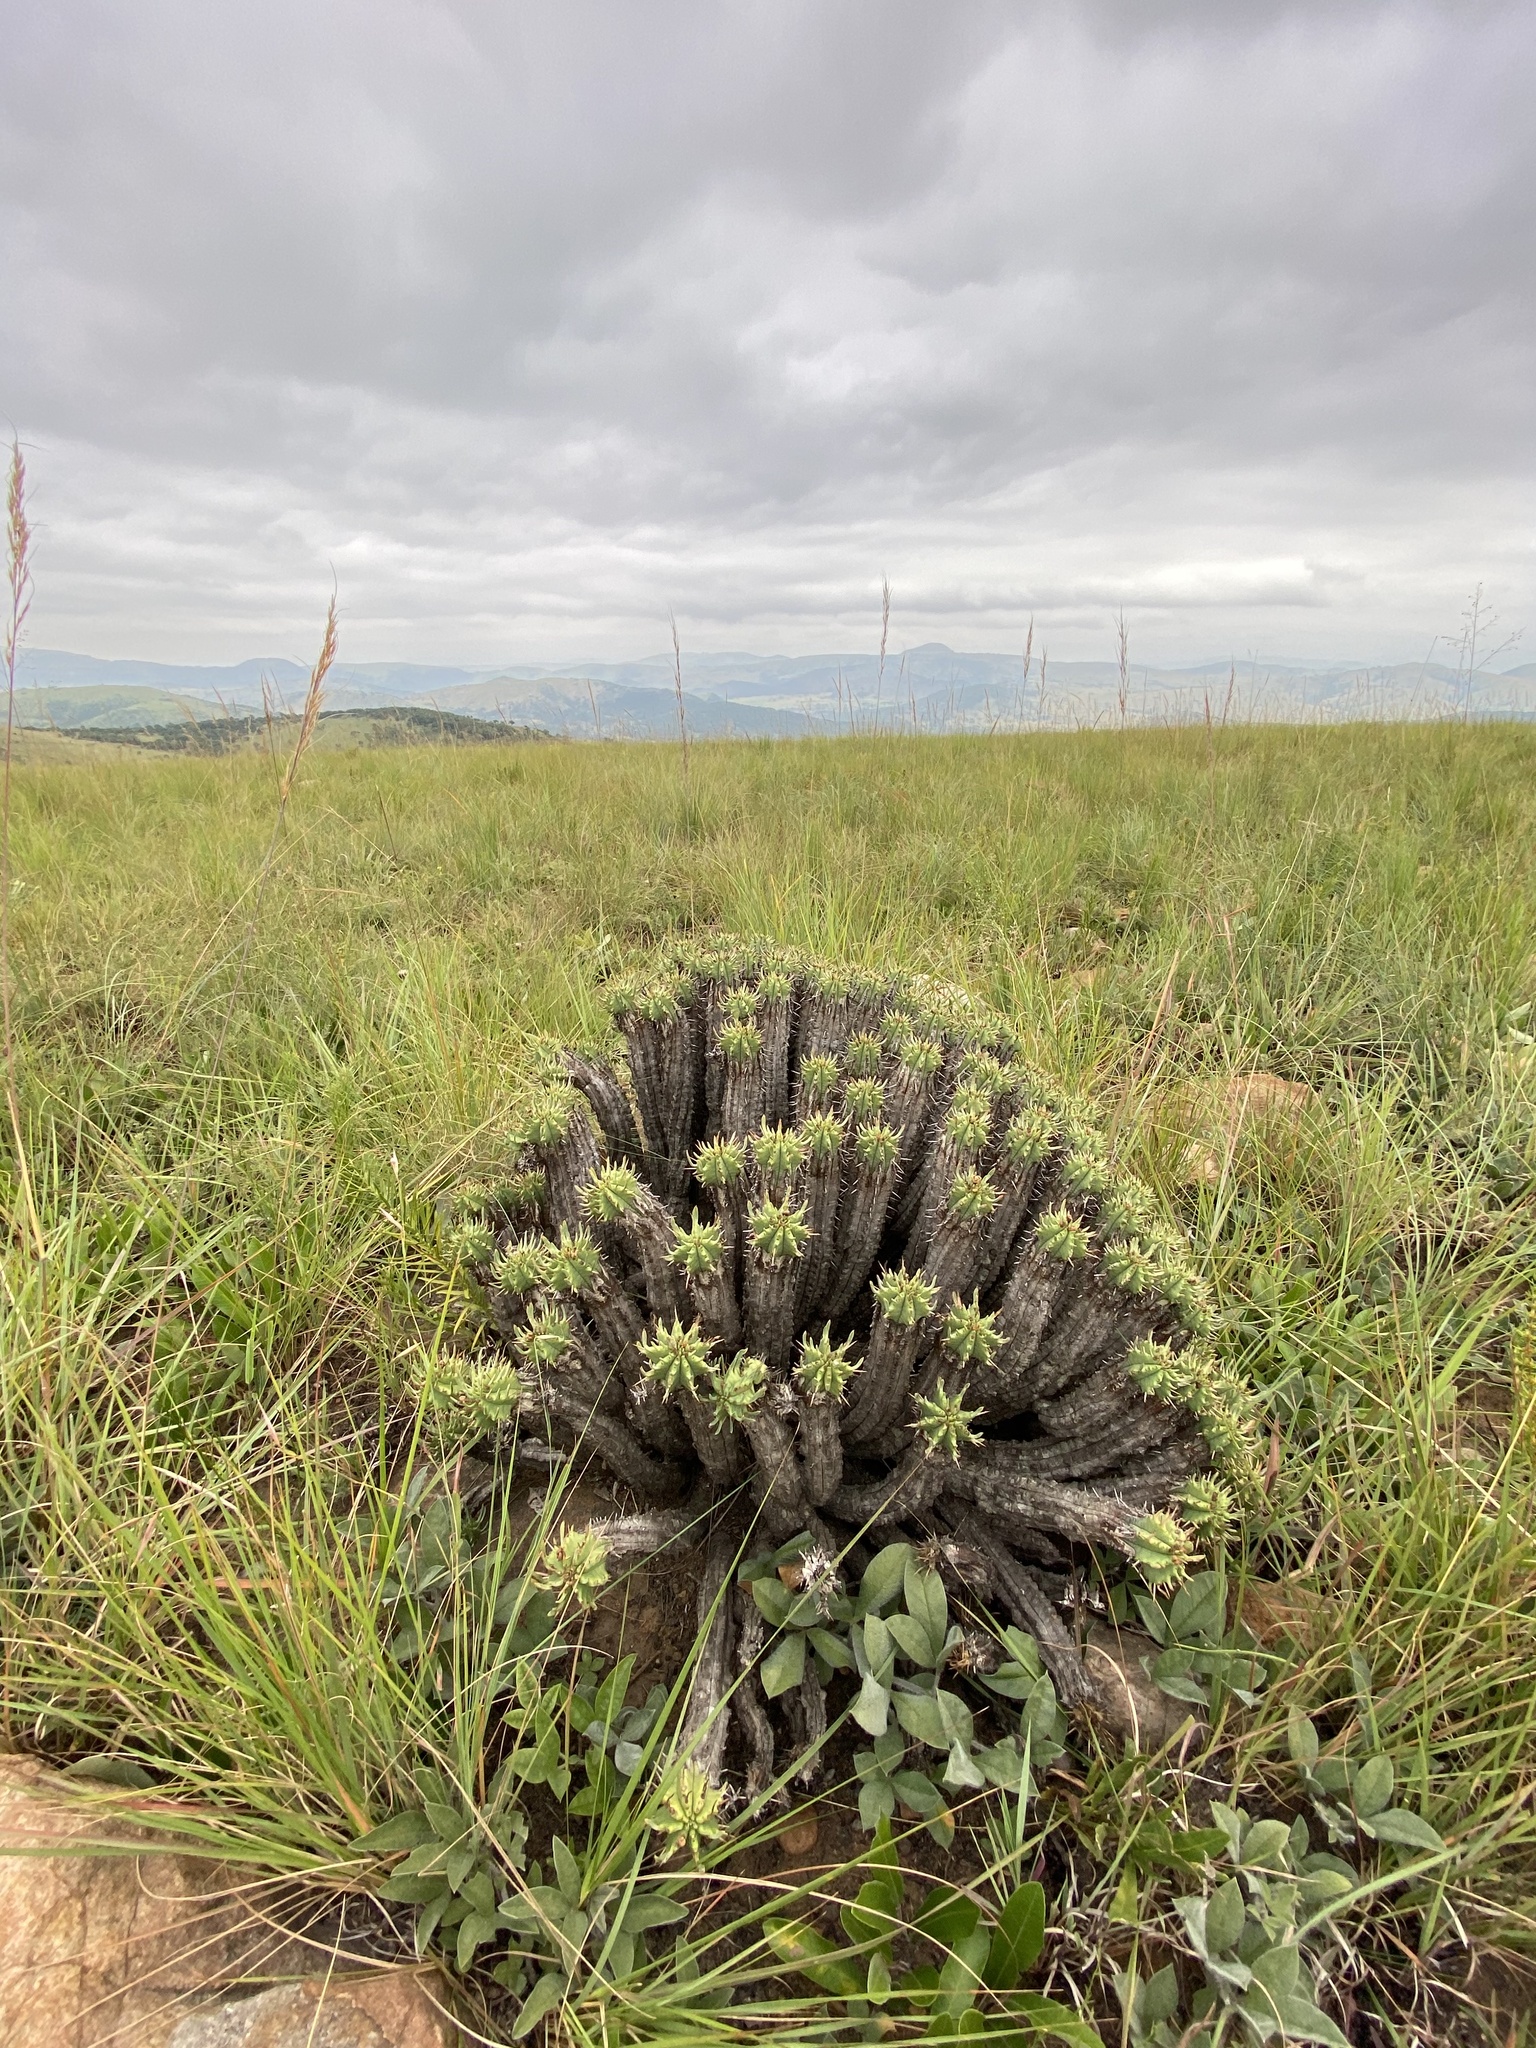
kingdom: Plantae
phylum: Tracheophyta
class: Magnoliopsida
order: Malpighiales
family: Euphorbiaceae
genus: Euphorbia
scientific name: Euphorbia pulvinata
